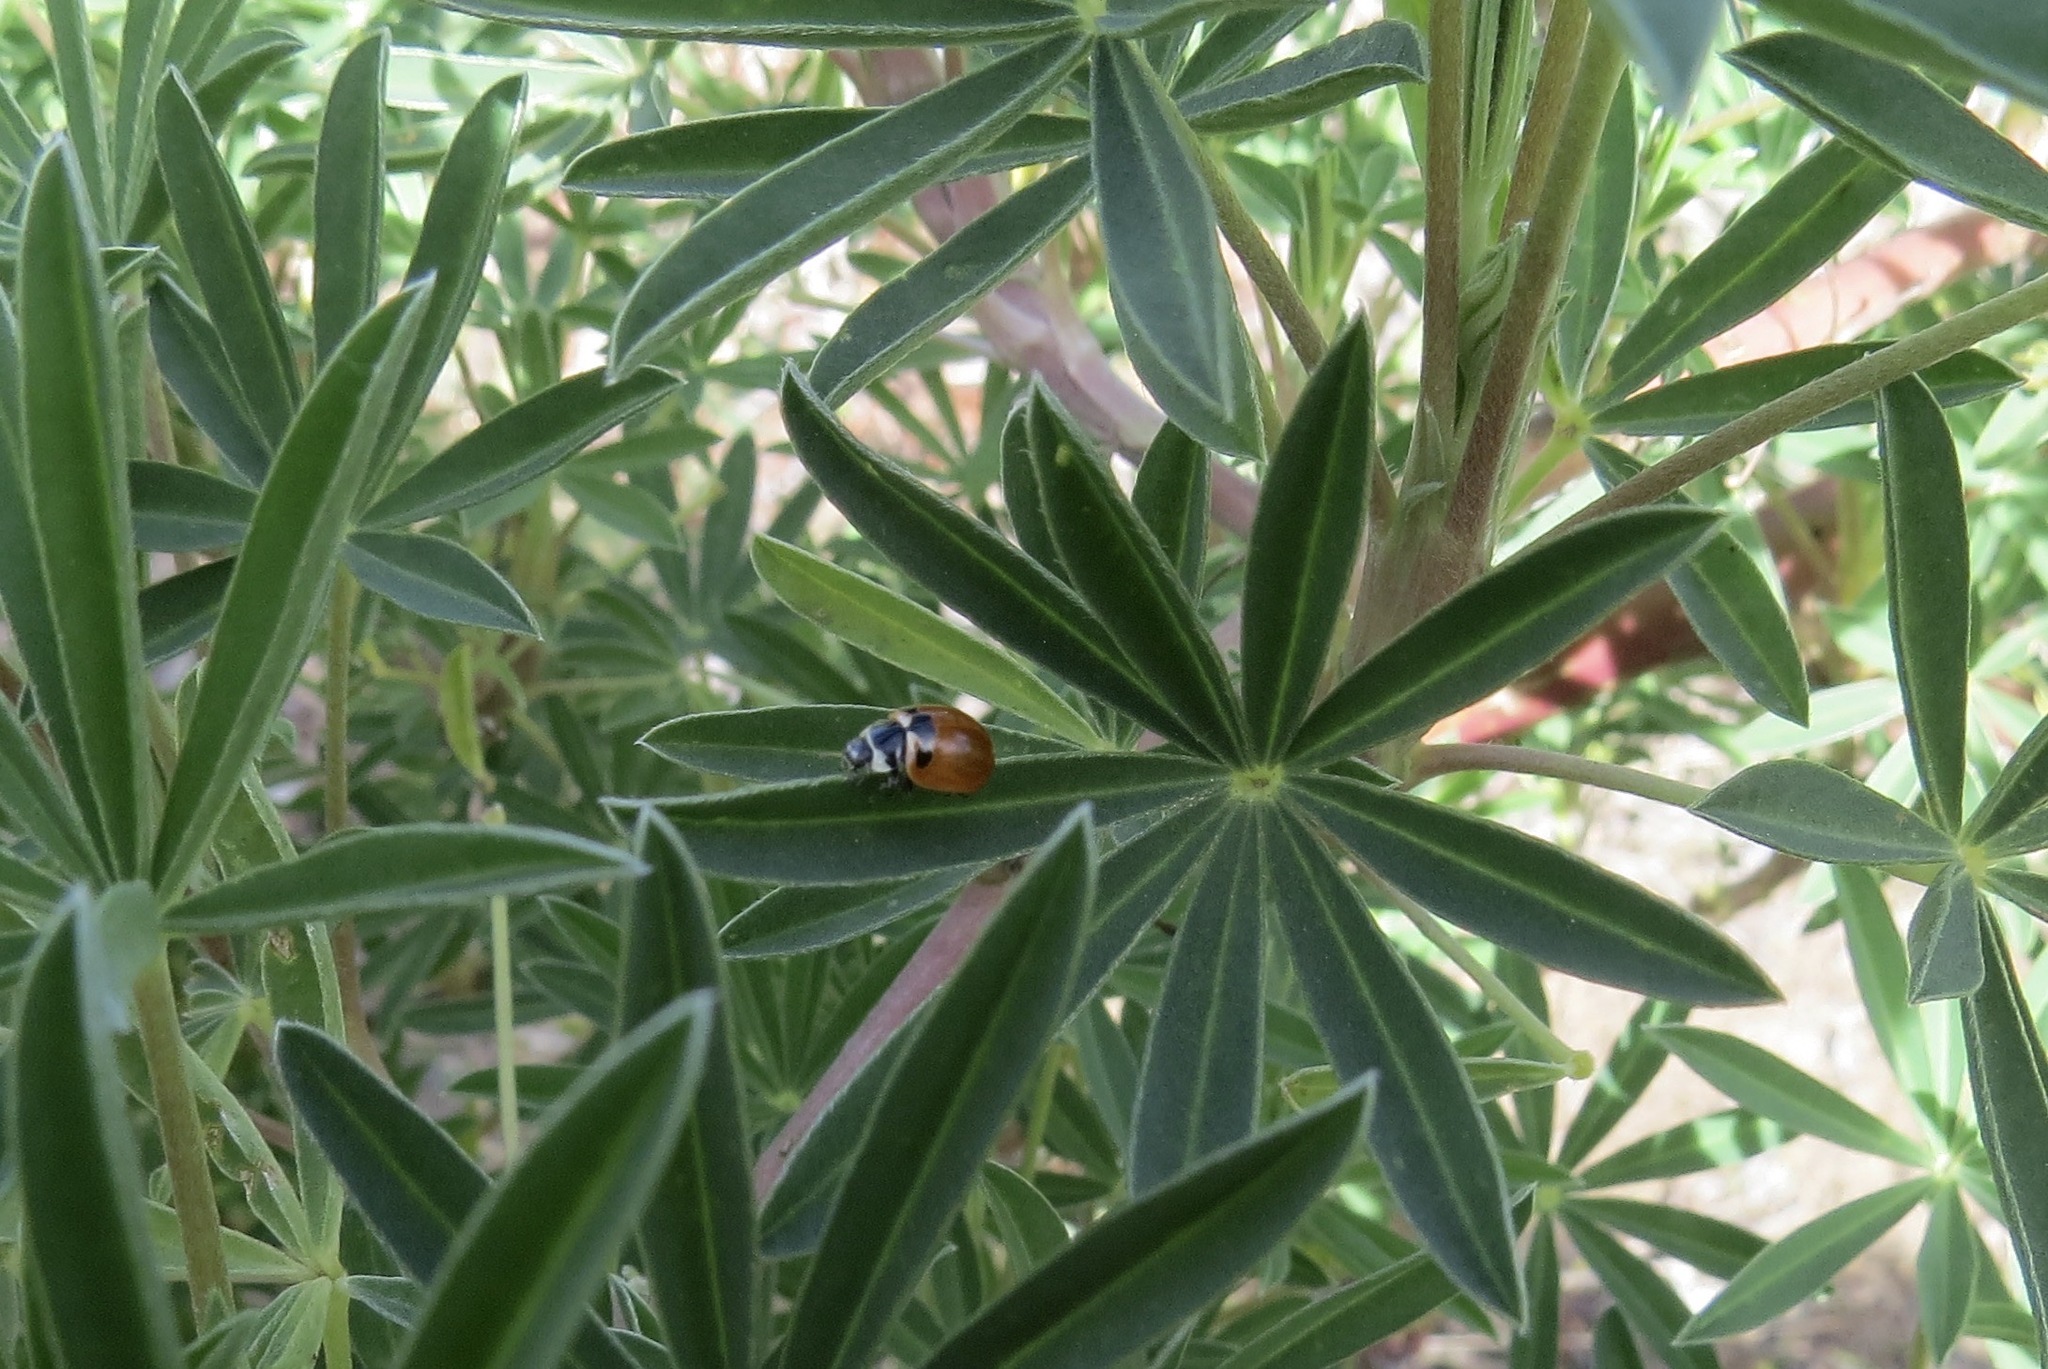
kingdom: Animalia
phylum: Arthropoda
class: Insecta
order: Coleoptera
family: Coccinellidae
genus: Coccinella
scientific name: Coccinella trifasciata
